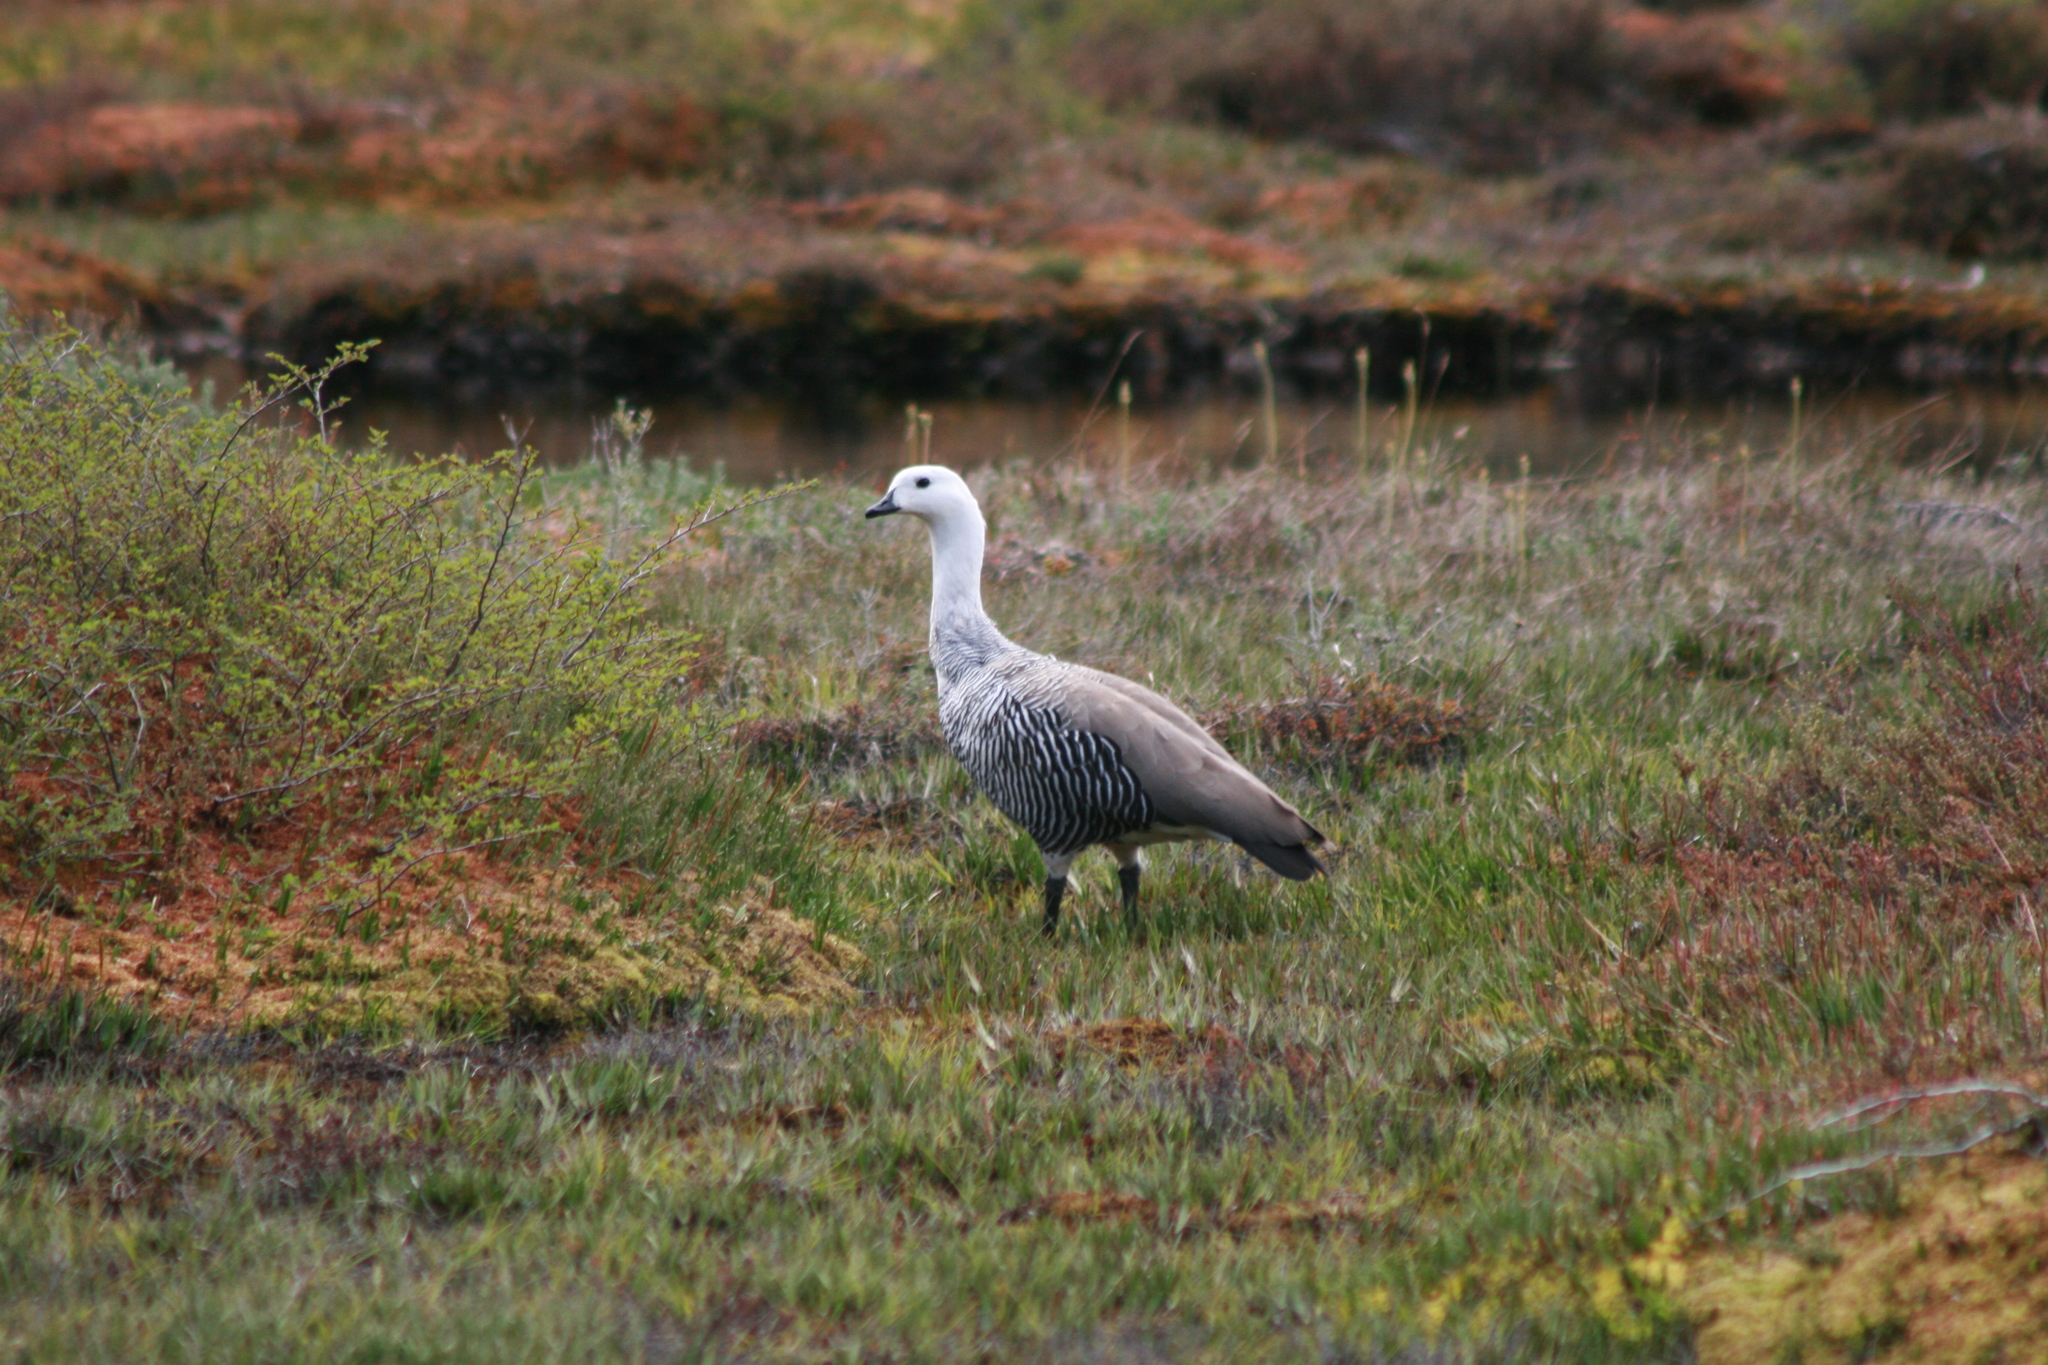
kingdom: Animalia
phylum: Chordata
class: Aves
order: Anseriformes
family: Anatidae
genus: Chloephaga
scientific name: Chloephaga picta
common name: Upland goose
